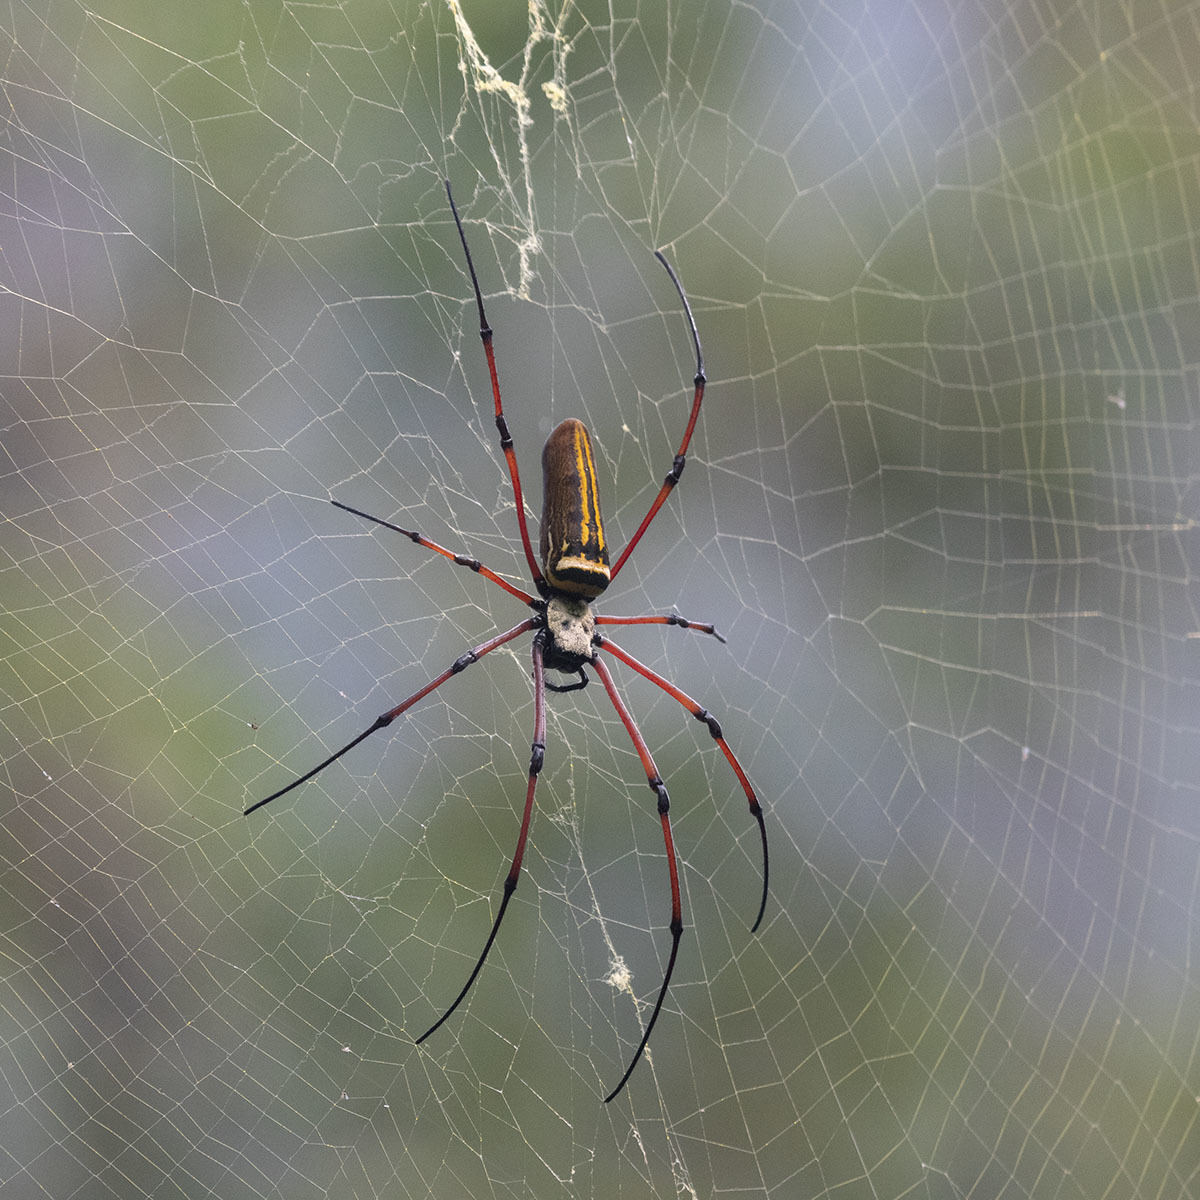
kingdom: Animalia
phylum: Arthropoda
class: Arachnida
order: Araneae
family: Araneidae
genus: Nephila
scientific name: Nephila kuhli
